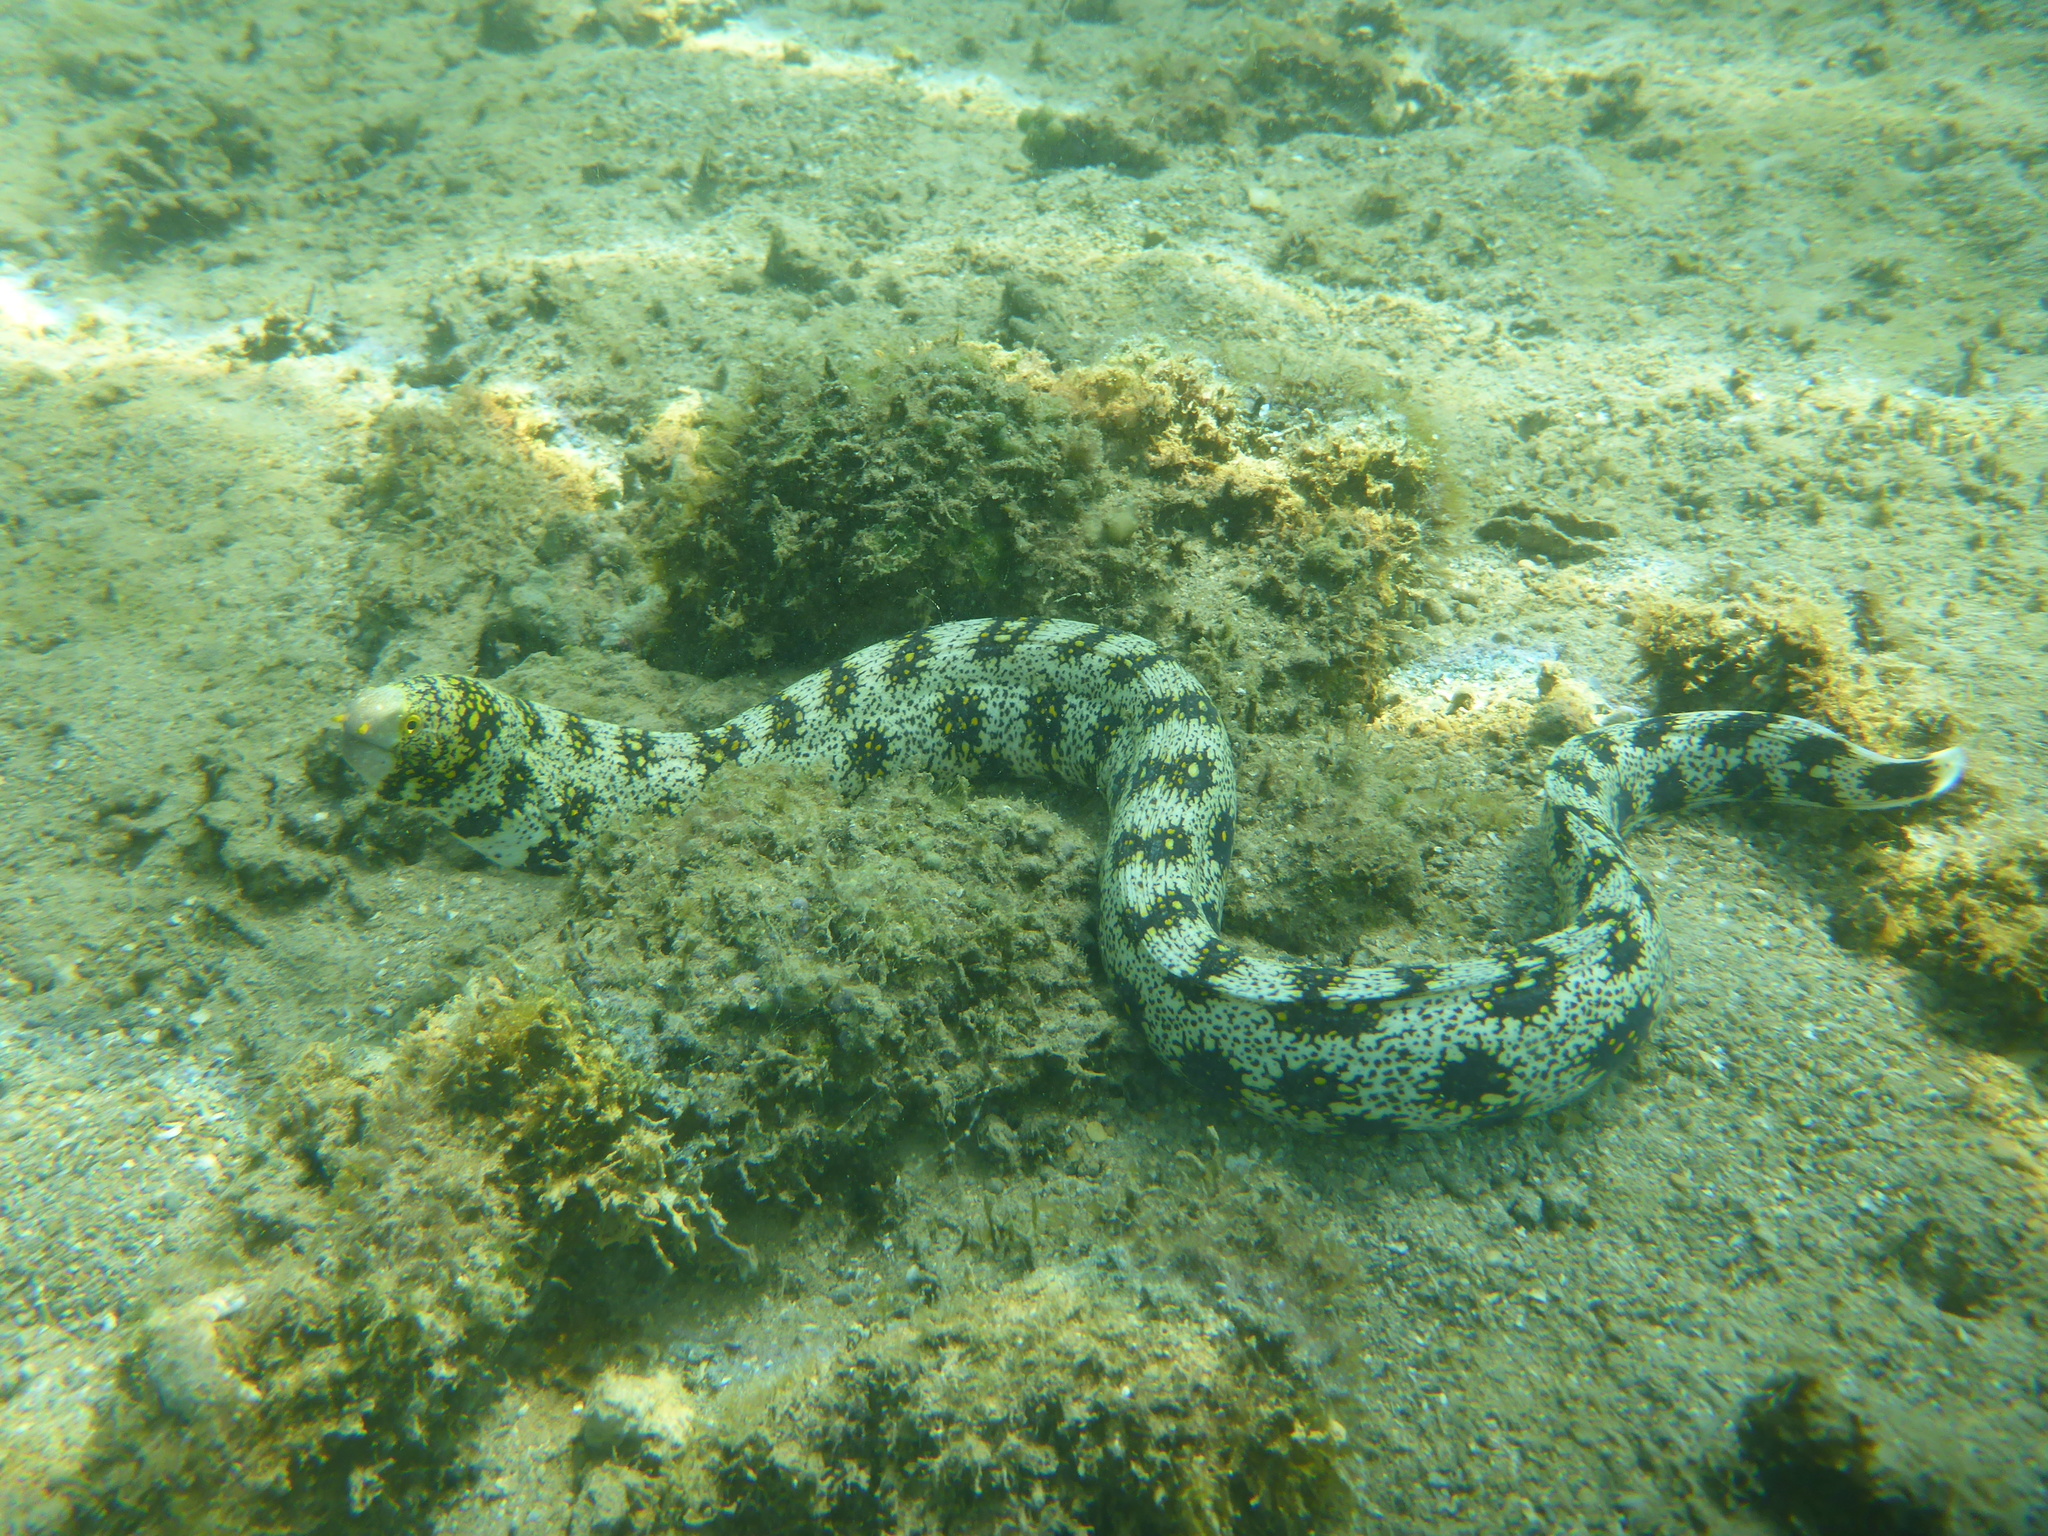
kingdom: Animalia
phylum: Chordata
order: Anguilliformes
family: Muraenidae
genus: Echidna
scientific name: Echidna nebulosa
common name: Snowflake moray
